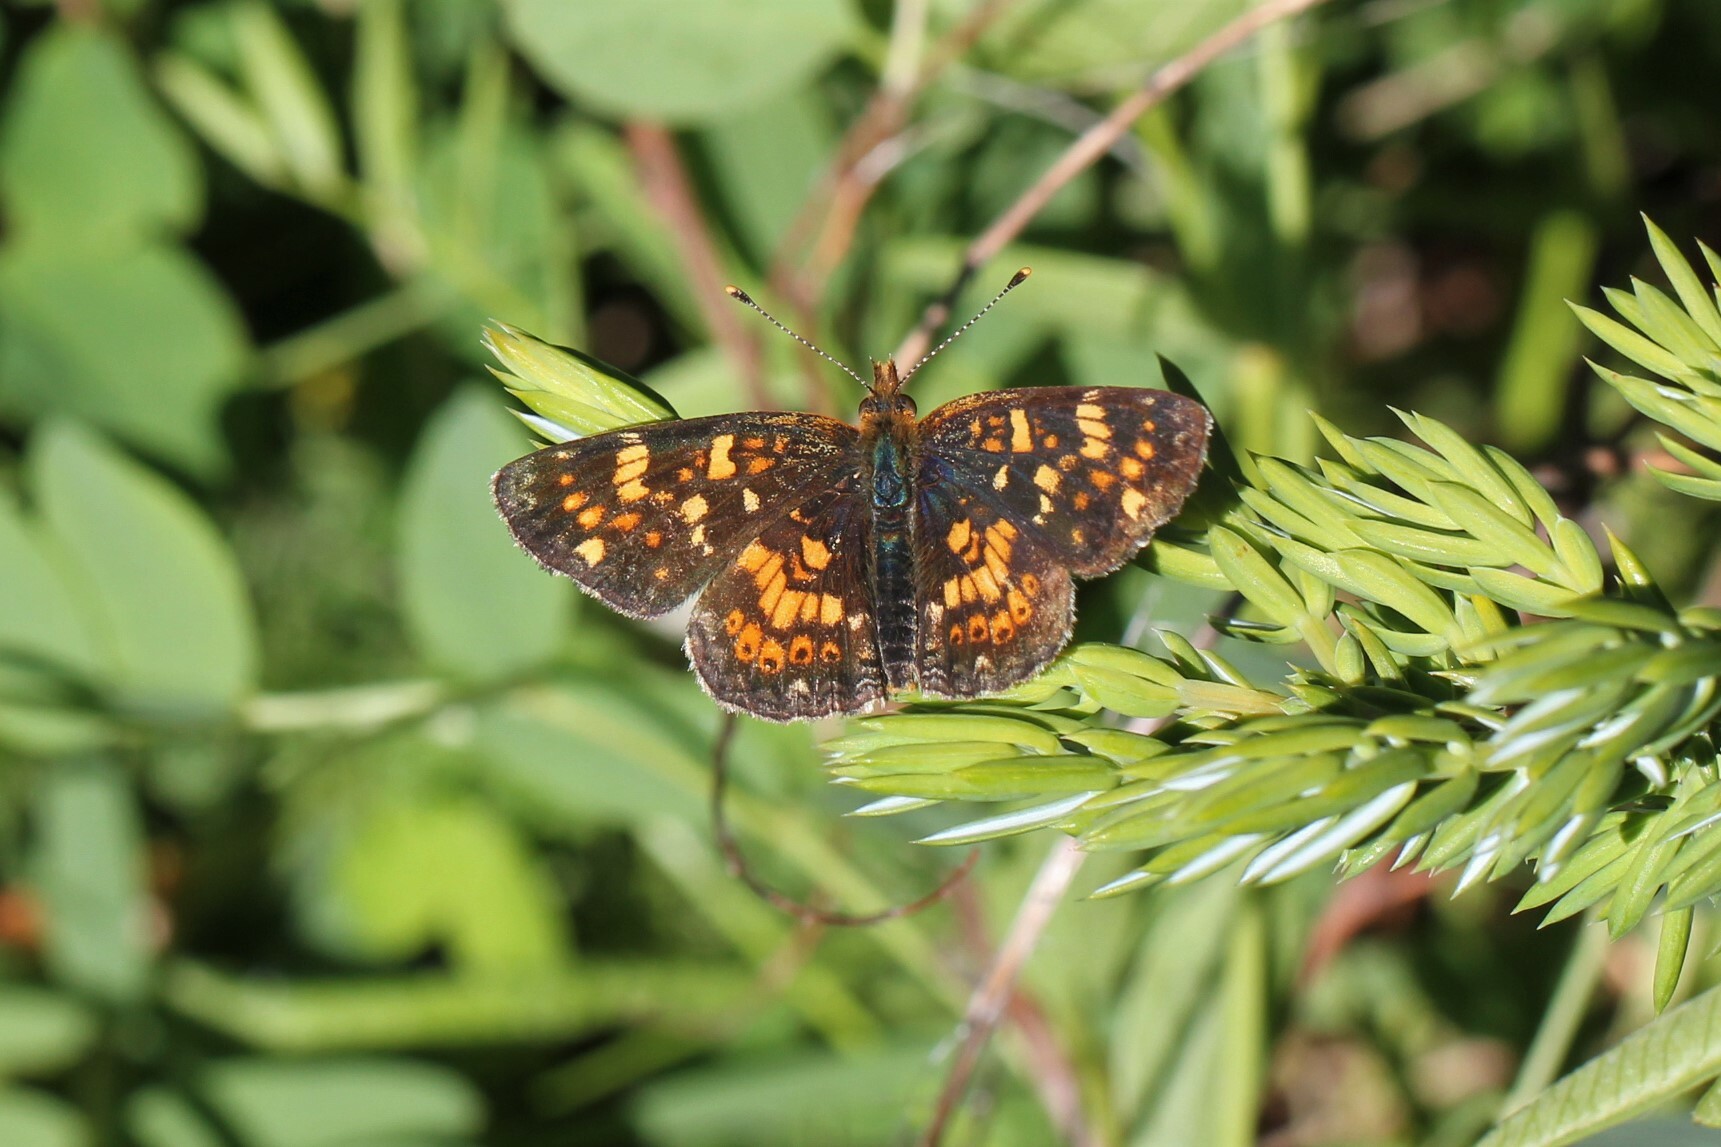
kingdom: Animalia
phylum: Arthropoda
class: Insecta
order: Lepidoptera
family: Nymphalidae
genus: Phyciodes
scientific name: Phyciodes tharos
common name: Pearl crescent
